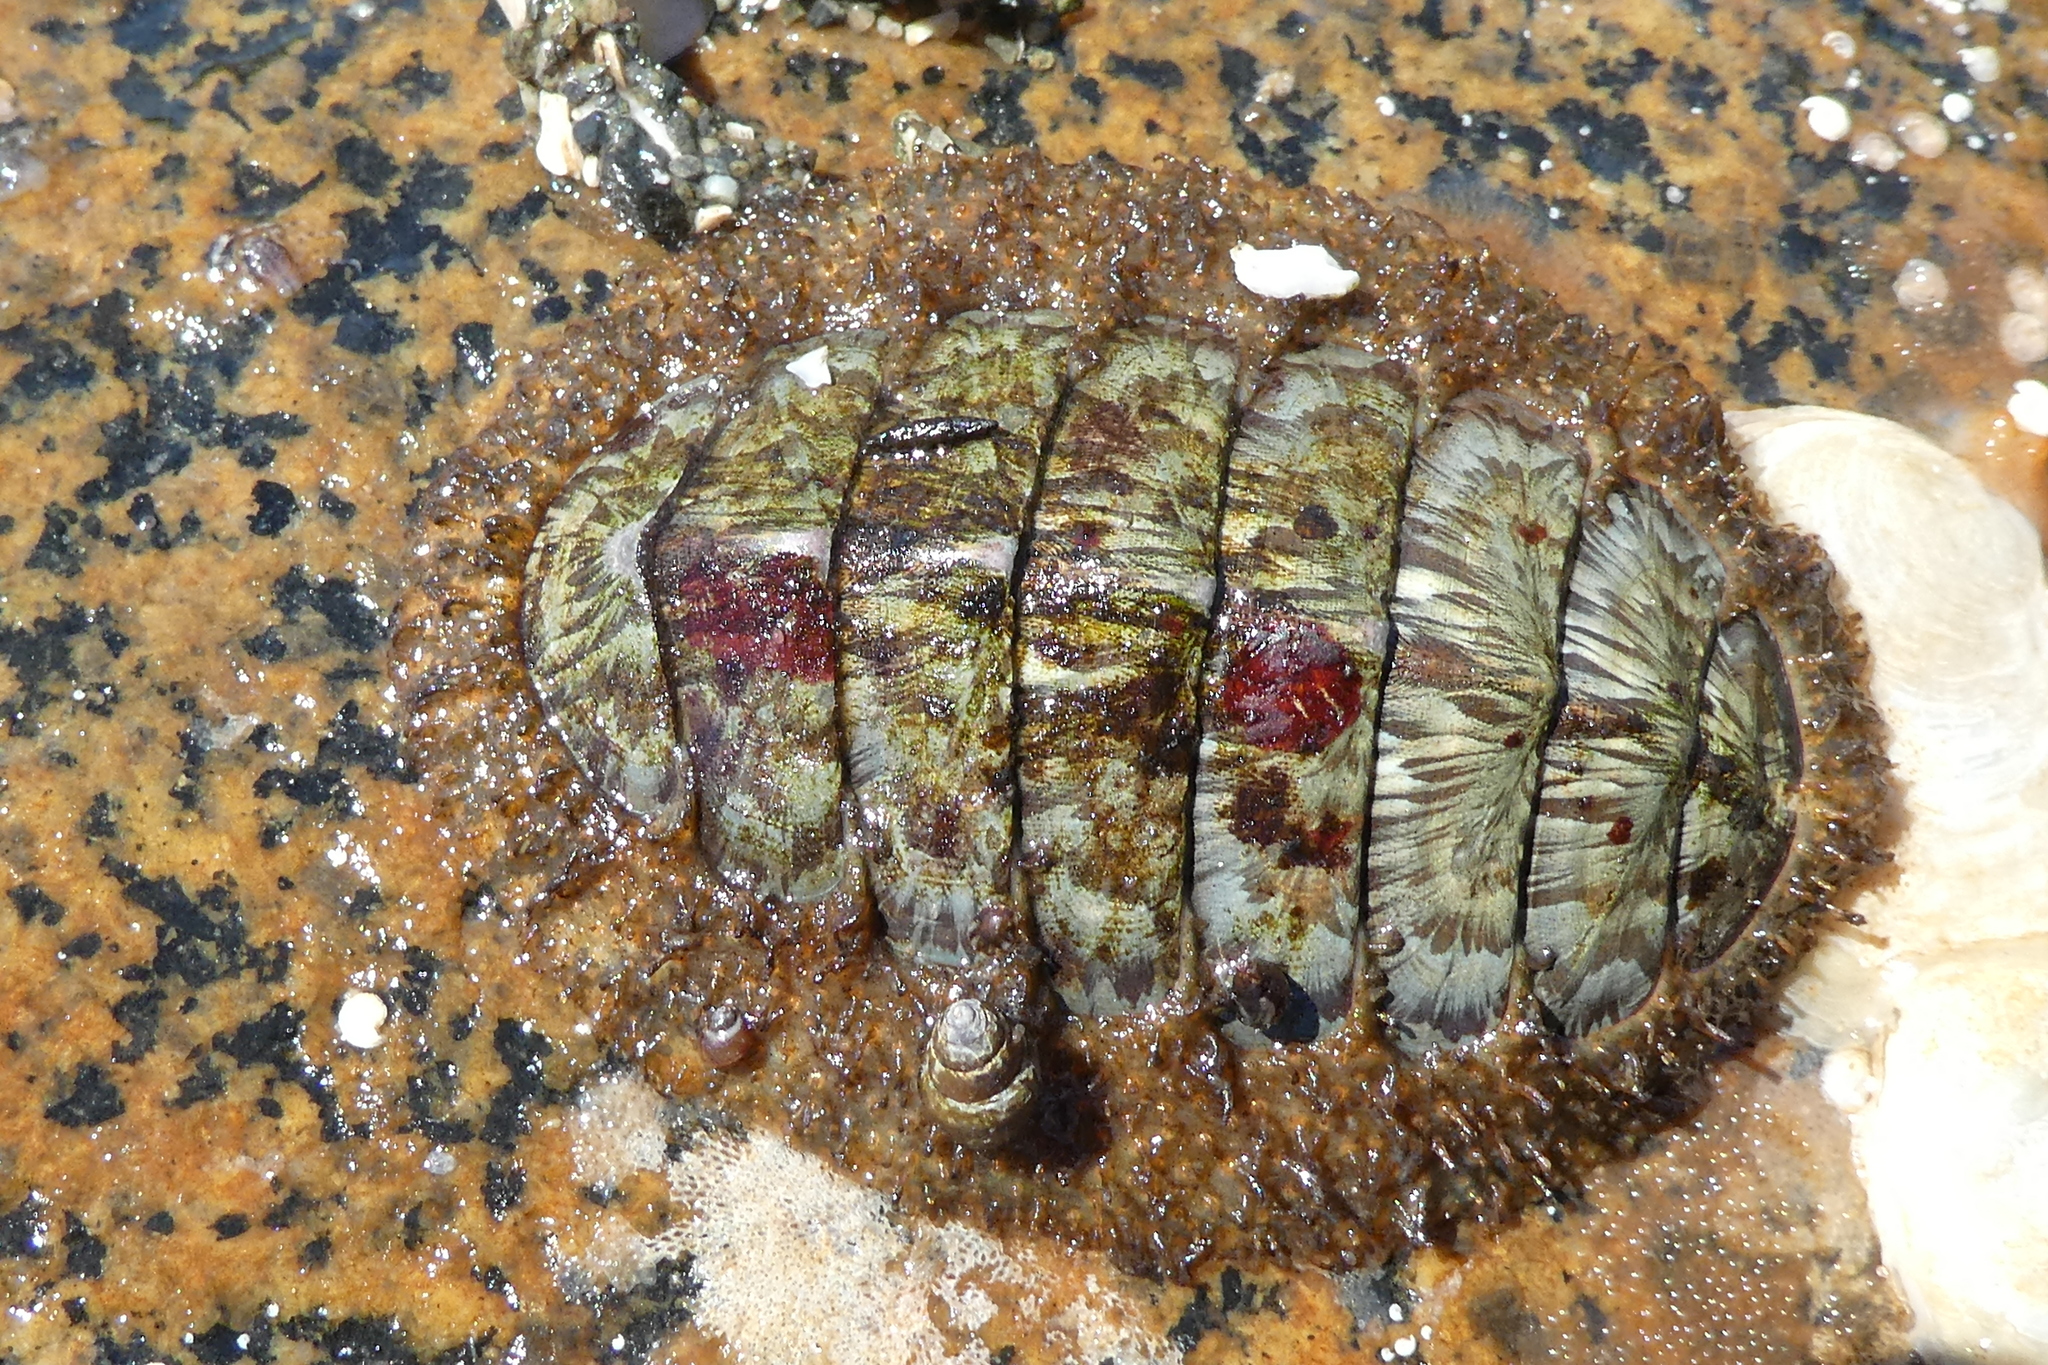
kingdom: Animalia
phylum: Mollusca
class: Polyplacophora
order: Chitonida
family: Mopaliidae
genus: Mopalia
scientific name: Mopalia lignosa
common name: Woody chiton
